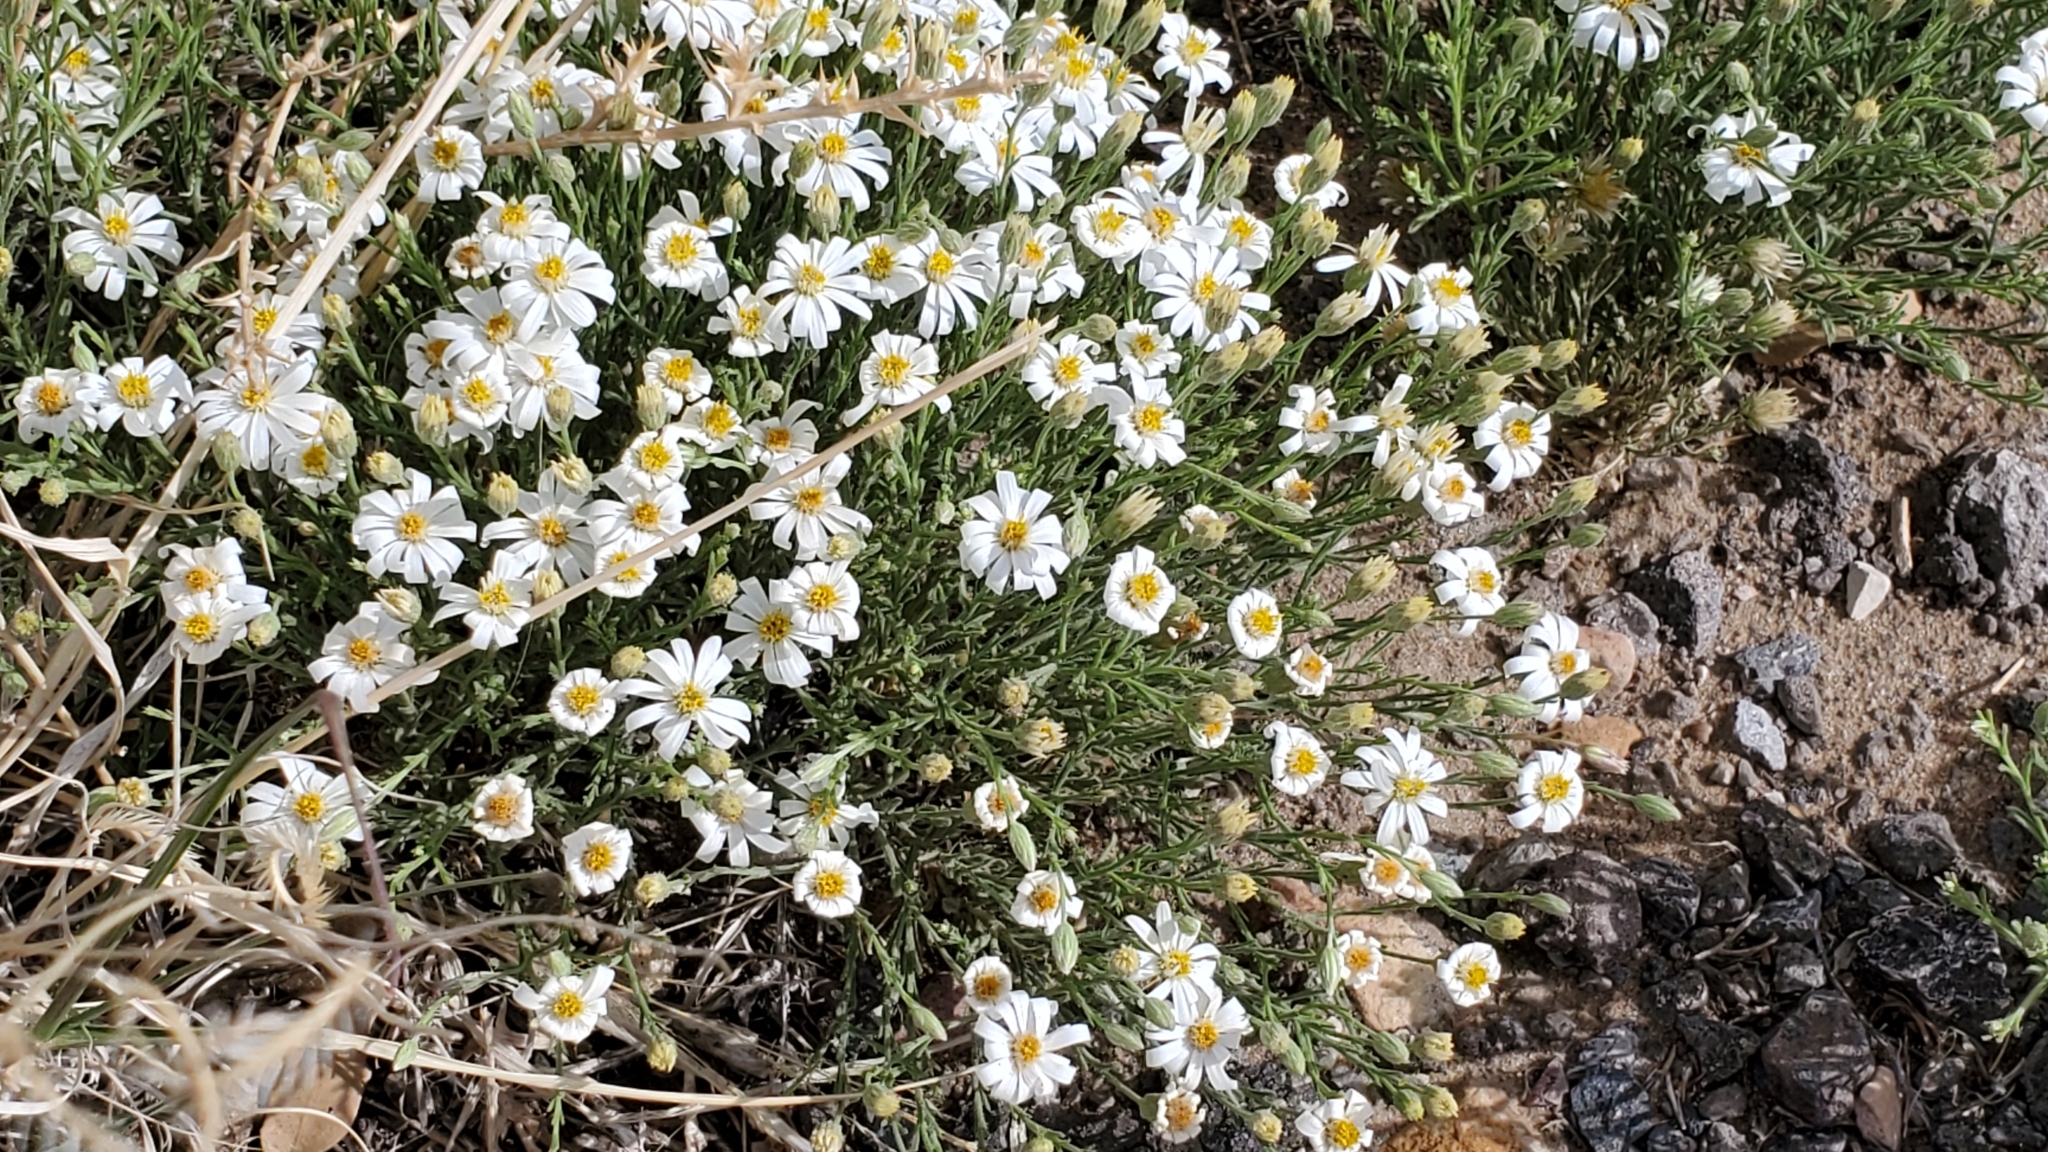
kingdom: Plantae
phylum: Tracheophyta
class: Magnoliopsida
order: Asterales
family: Asteraceae
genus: Chaetopappa
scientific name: Chaetopappa ericoides
